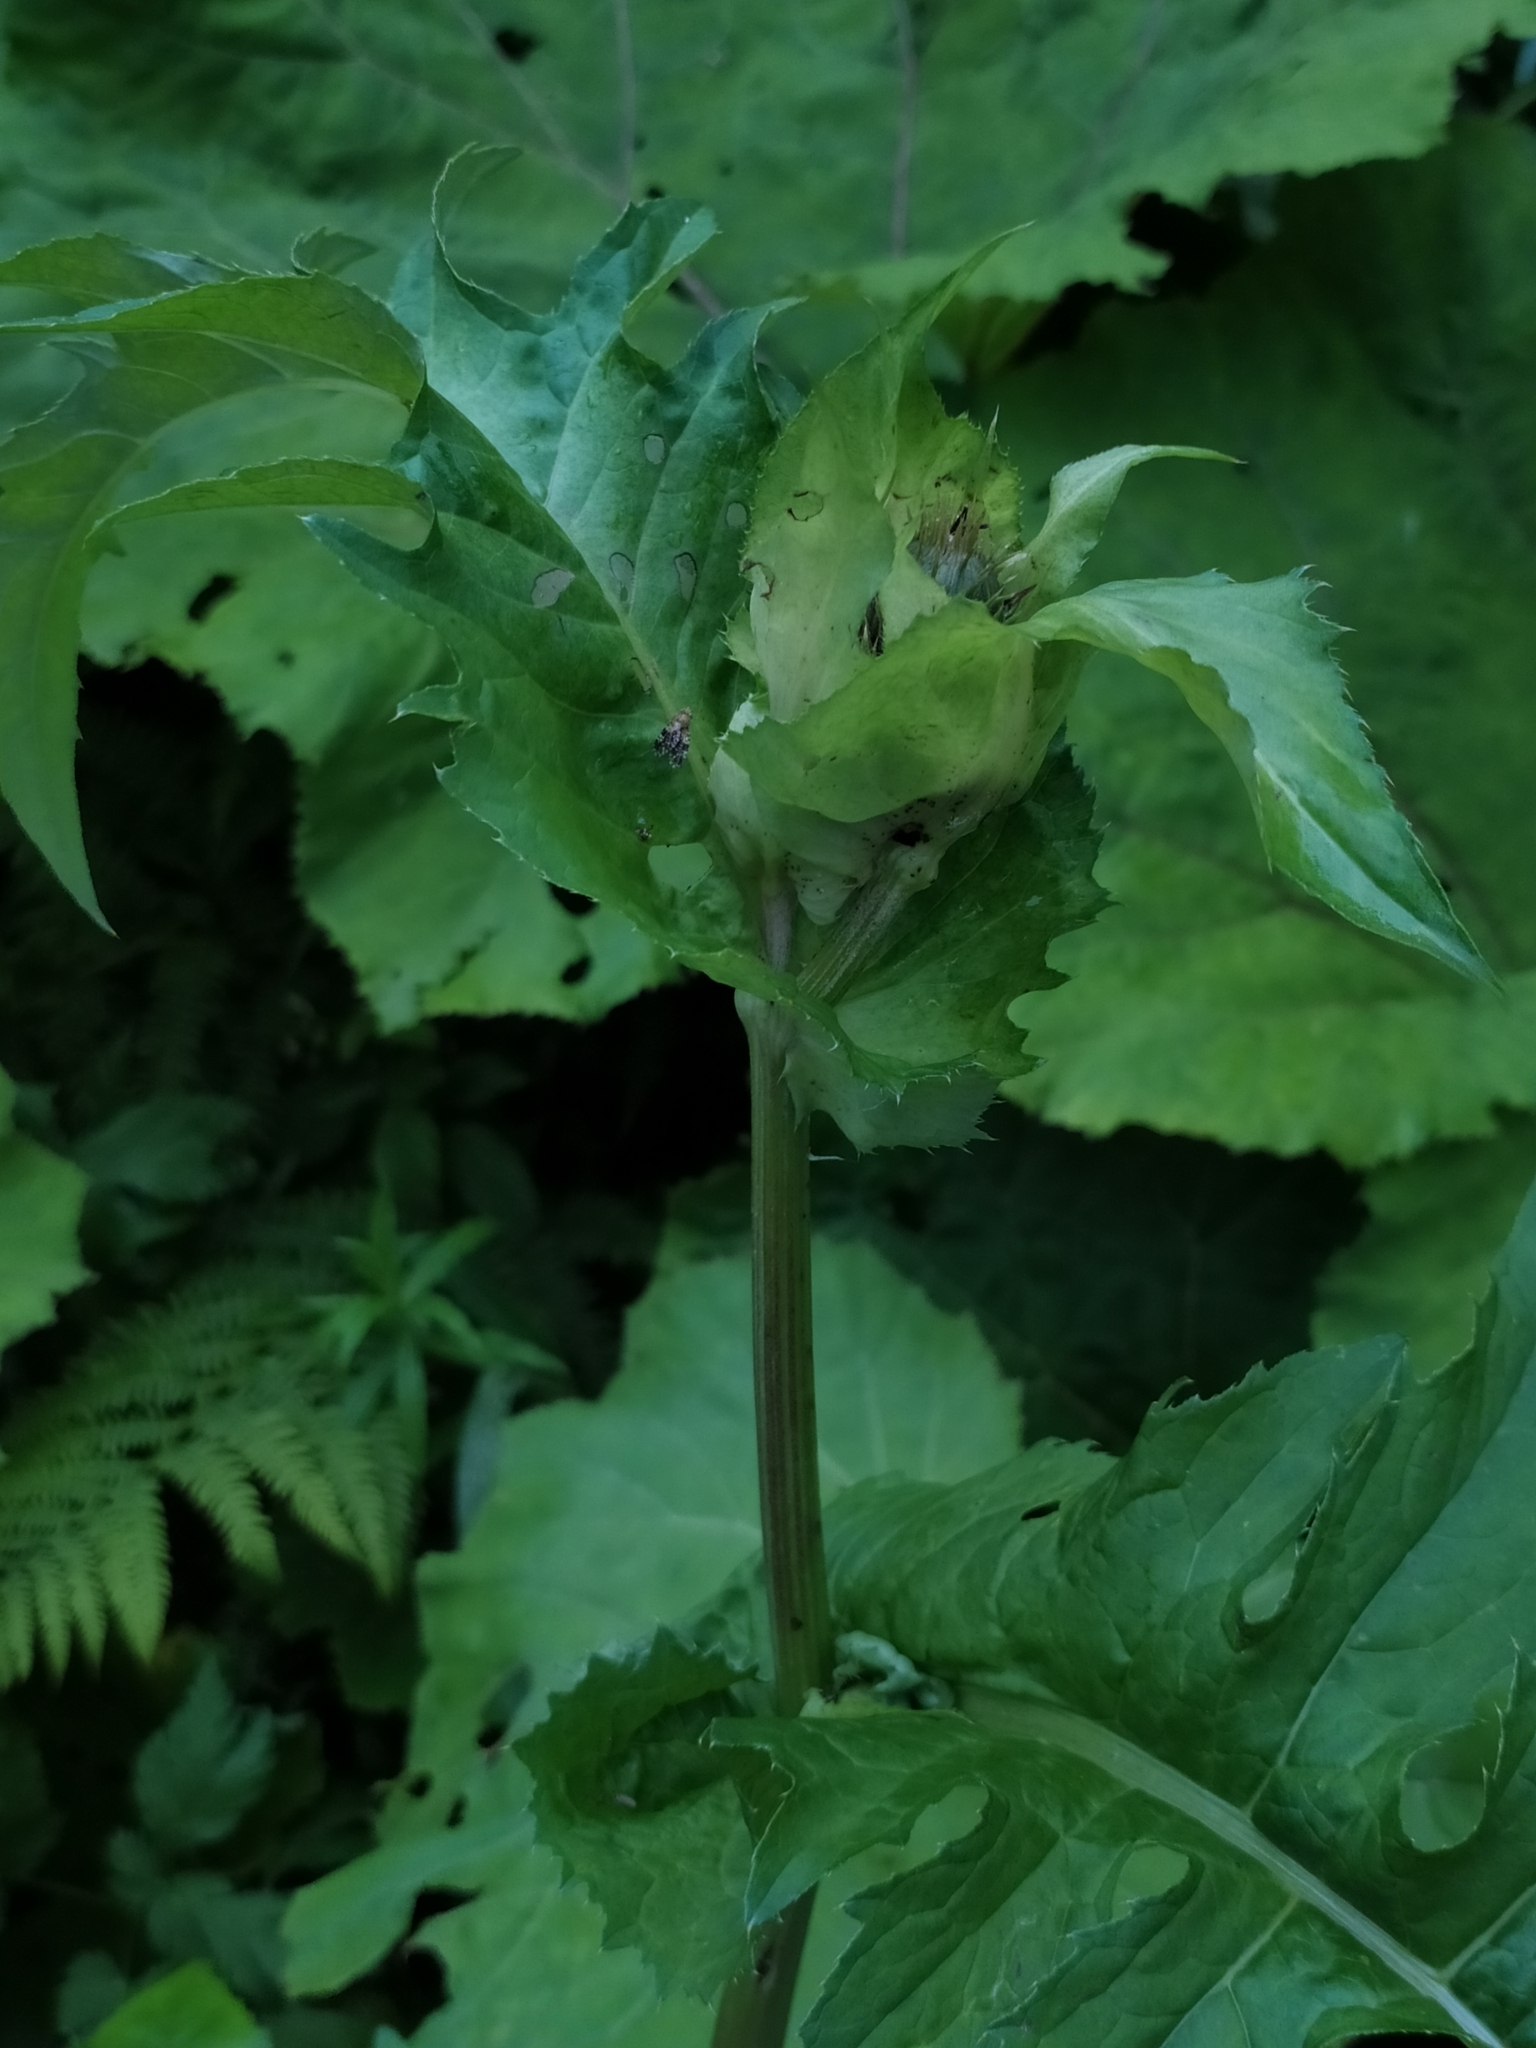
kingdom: Plantae
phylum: Tracheophyta
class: Magnoliopsida
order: Asterales
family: Asteraceae
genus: Cirsium
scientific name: Cirsium oleraceum
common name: Cabbage thistle
